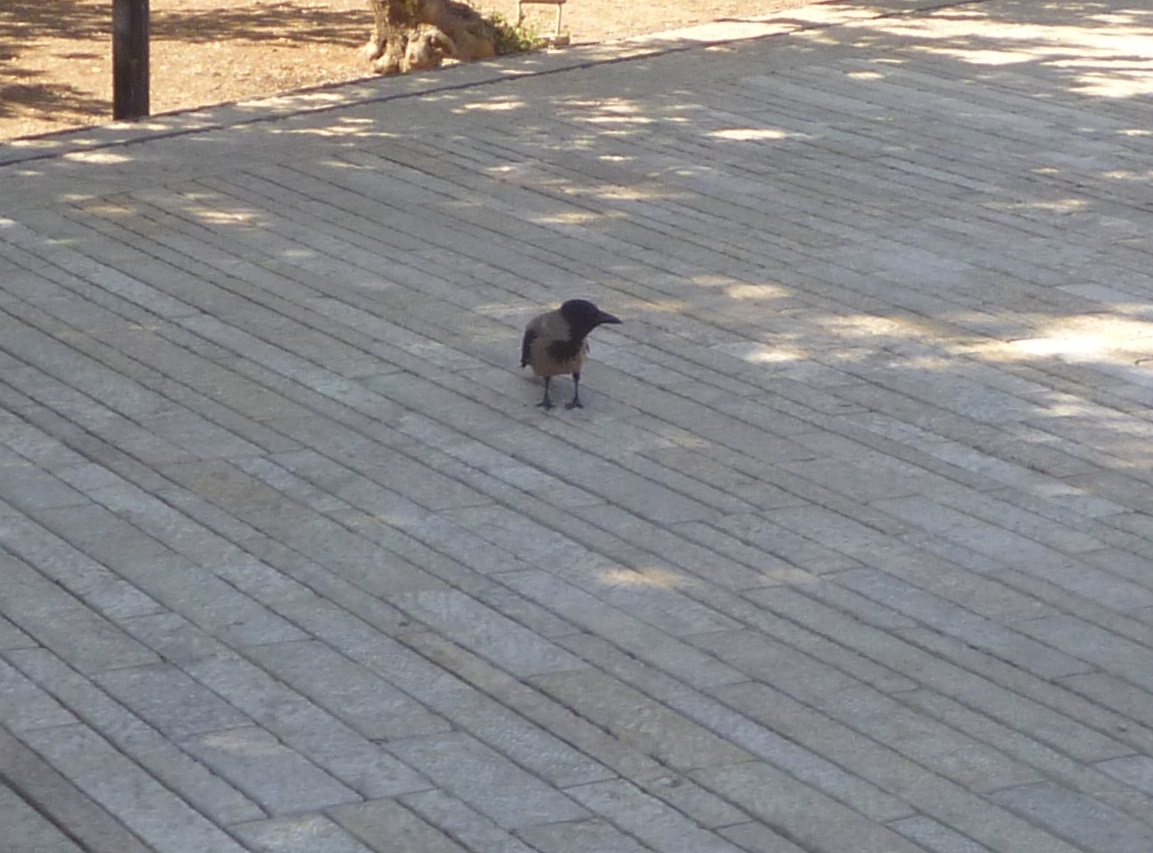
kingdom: Animalia
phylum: Chordata
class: Aves
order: Passeriformes
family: Corvidae
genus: Corvus
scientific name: Corvus cornix
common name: Hooded crow
